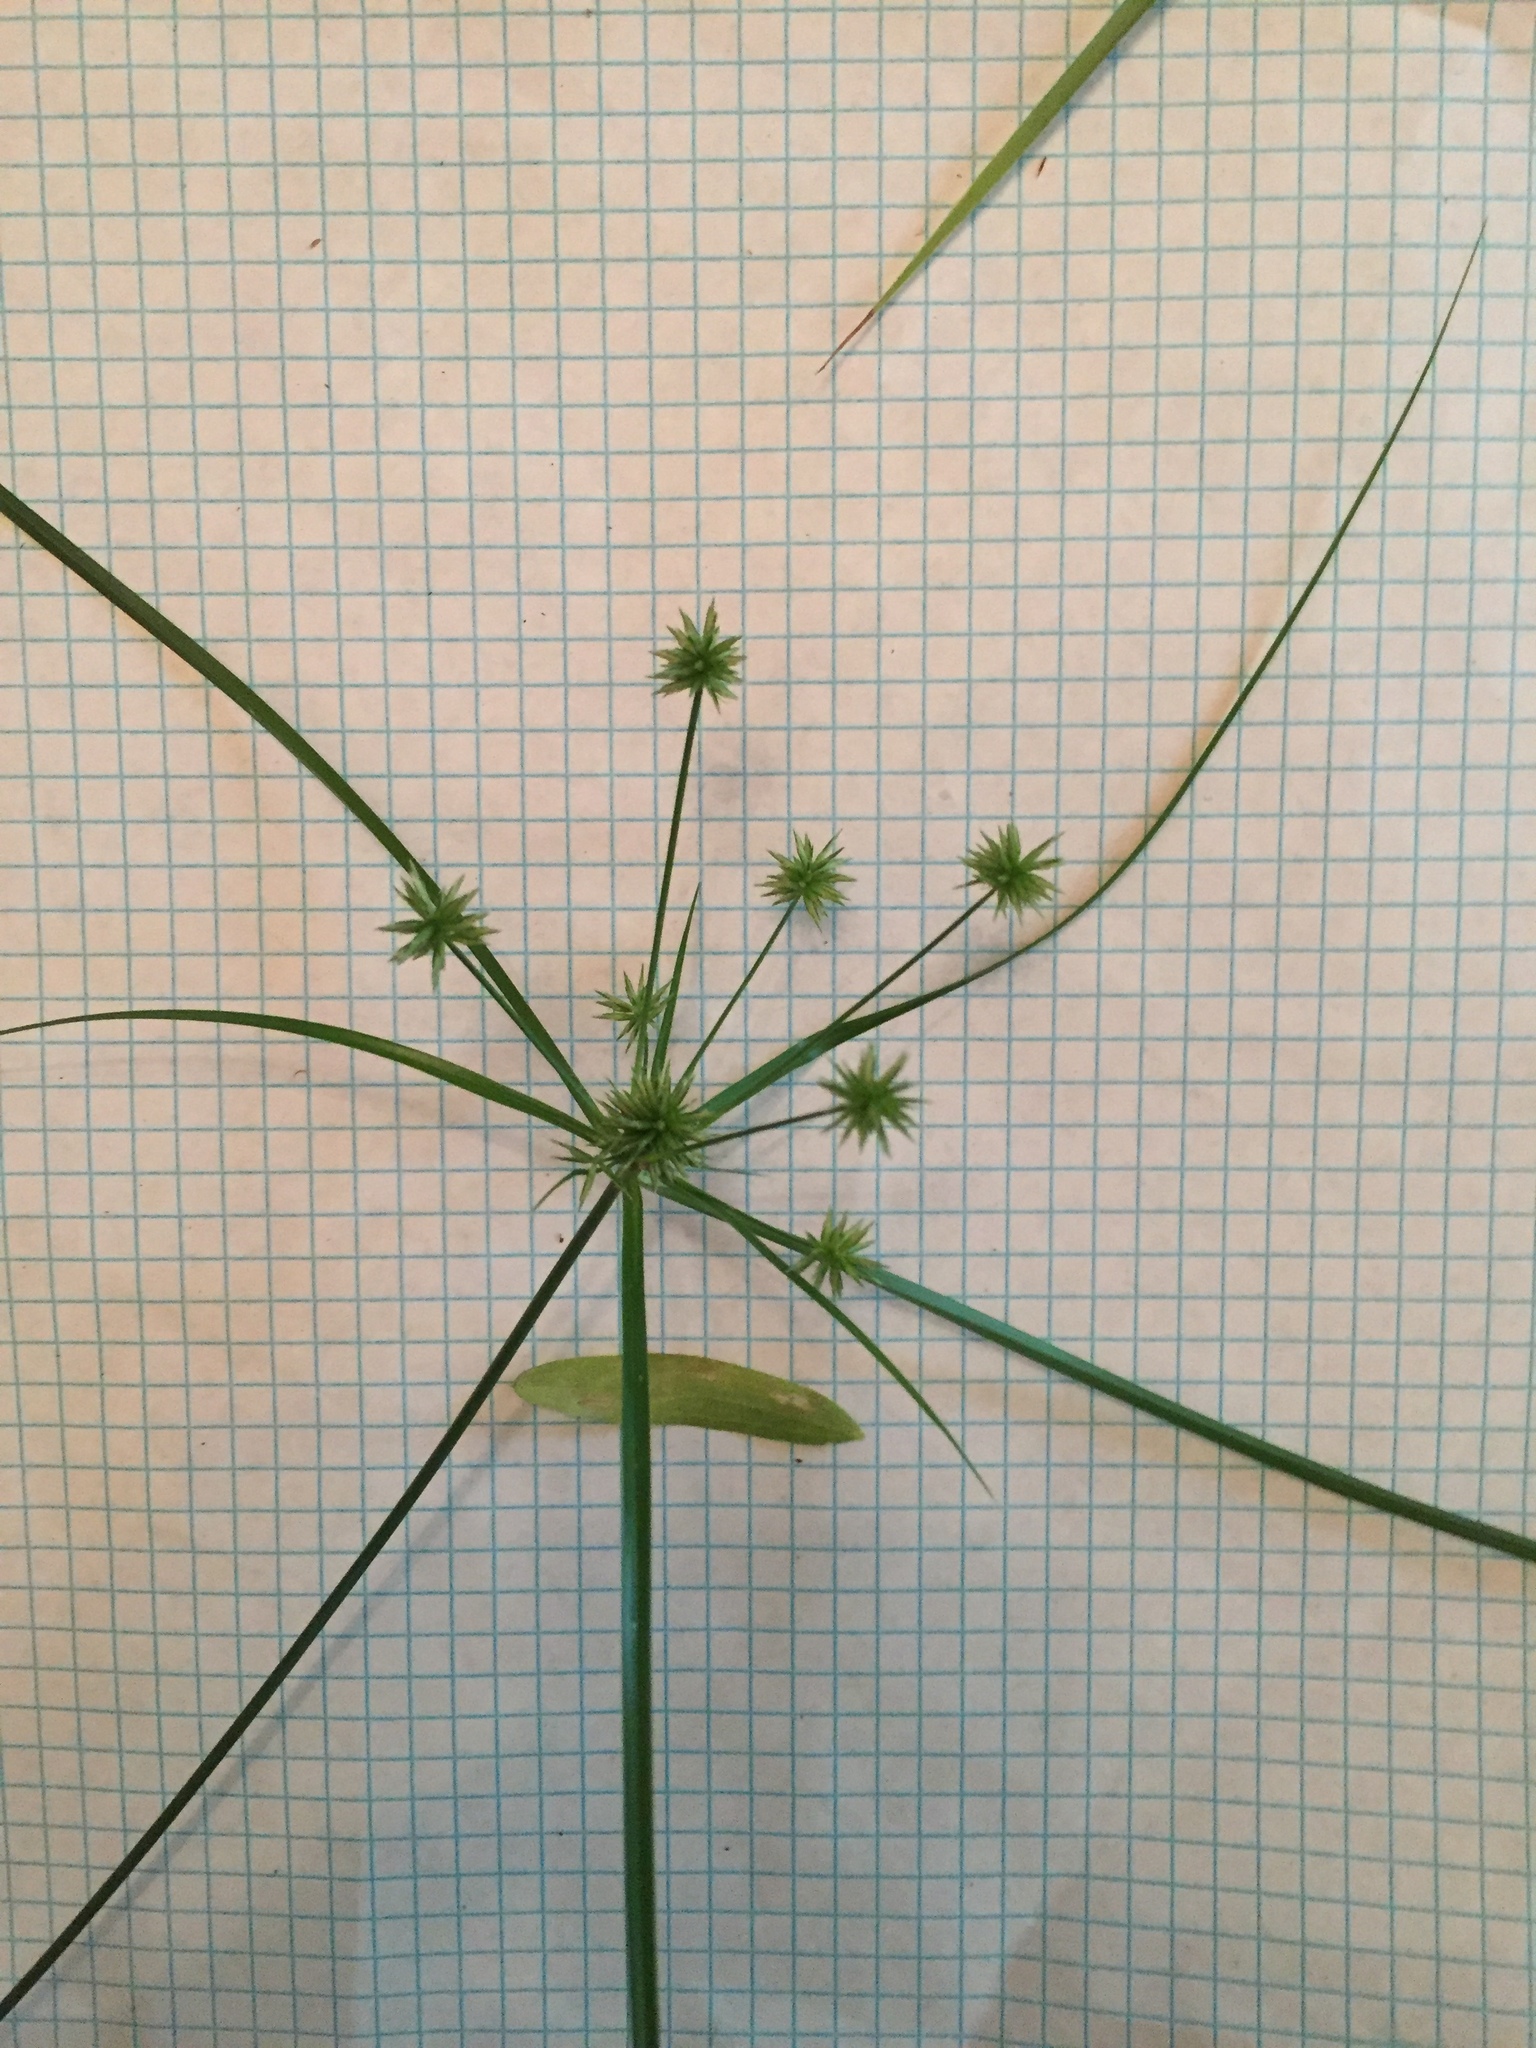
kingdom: Plantae
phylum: Tracheophyta
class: Liliopsida
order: Poales
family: Cyperaceae
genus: Cyperus
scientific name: Cyperus croceus
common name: Baldwin's flatsedge
